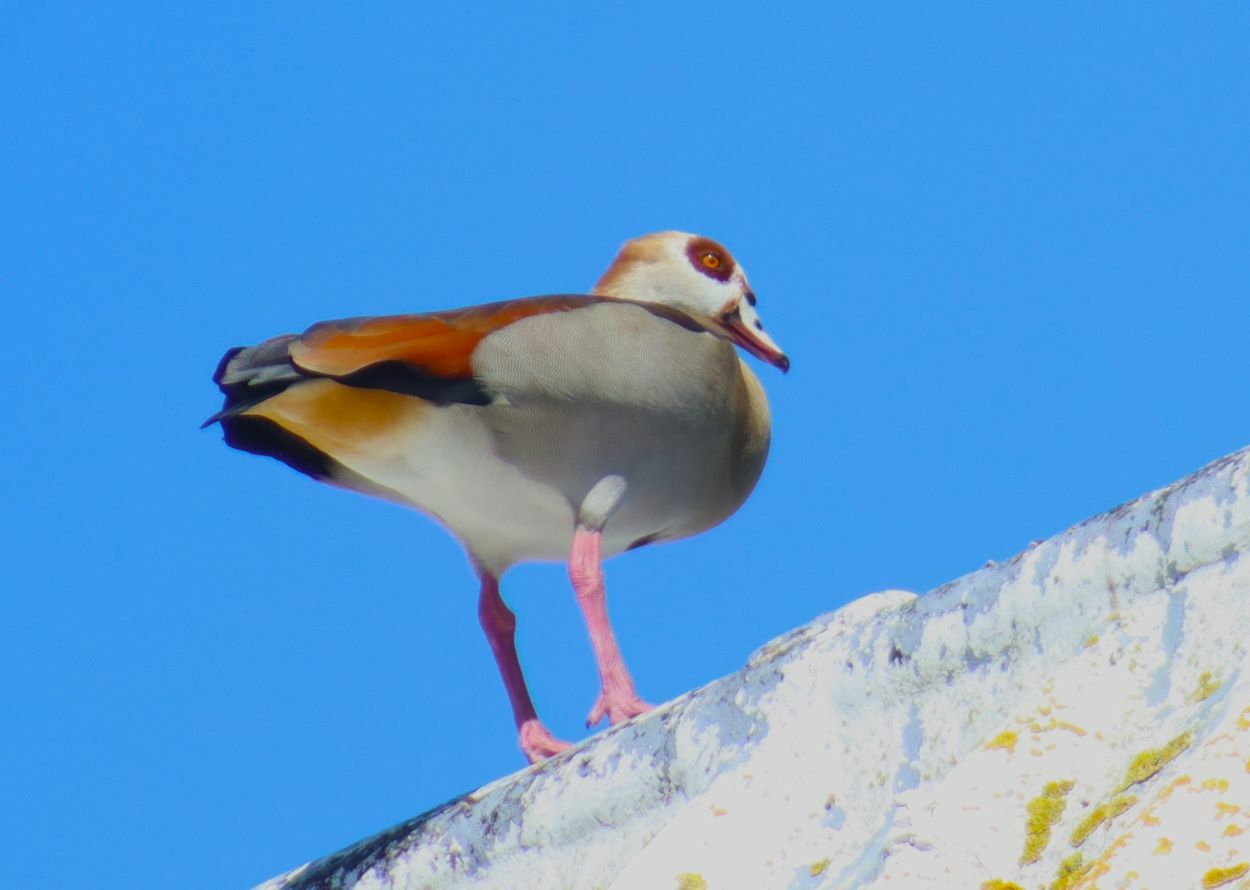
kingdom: Animalia
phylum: Chordata
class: Aves
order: Anseriformes
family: Anatidae
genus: Alopochen
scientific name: Alopochen aegyptiaca
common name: Egyptian goose
